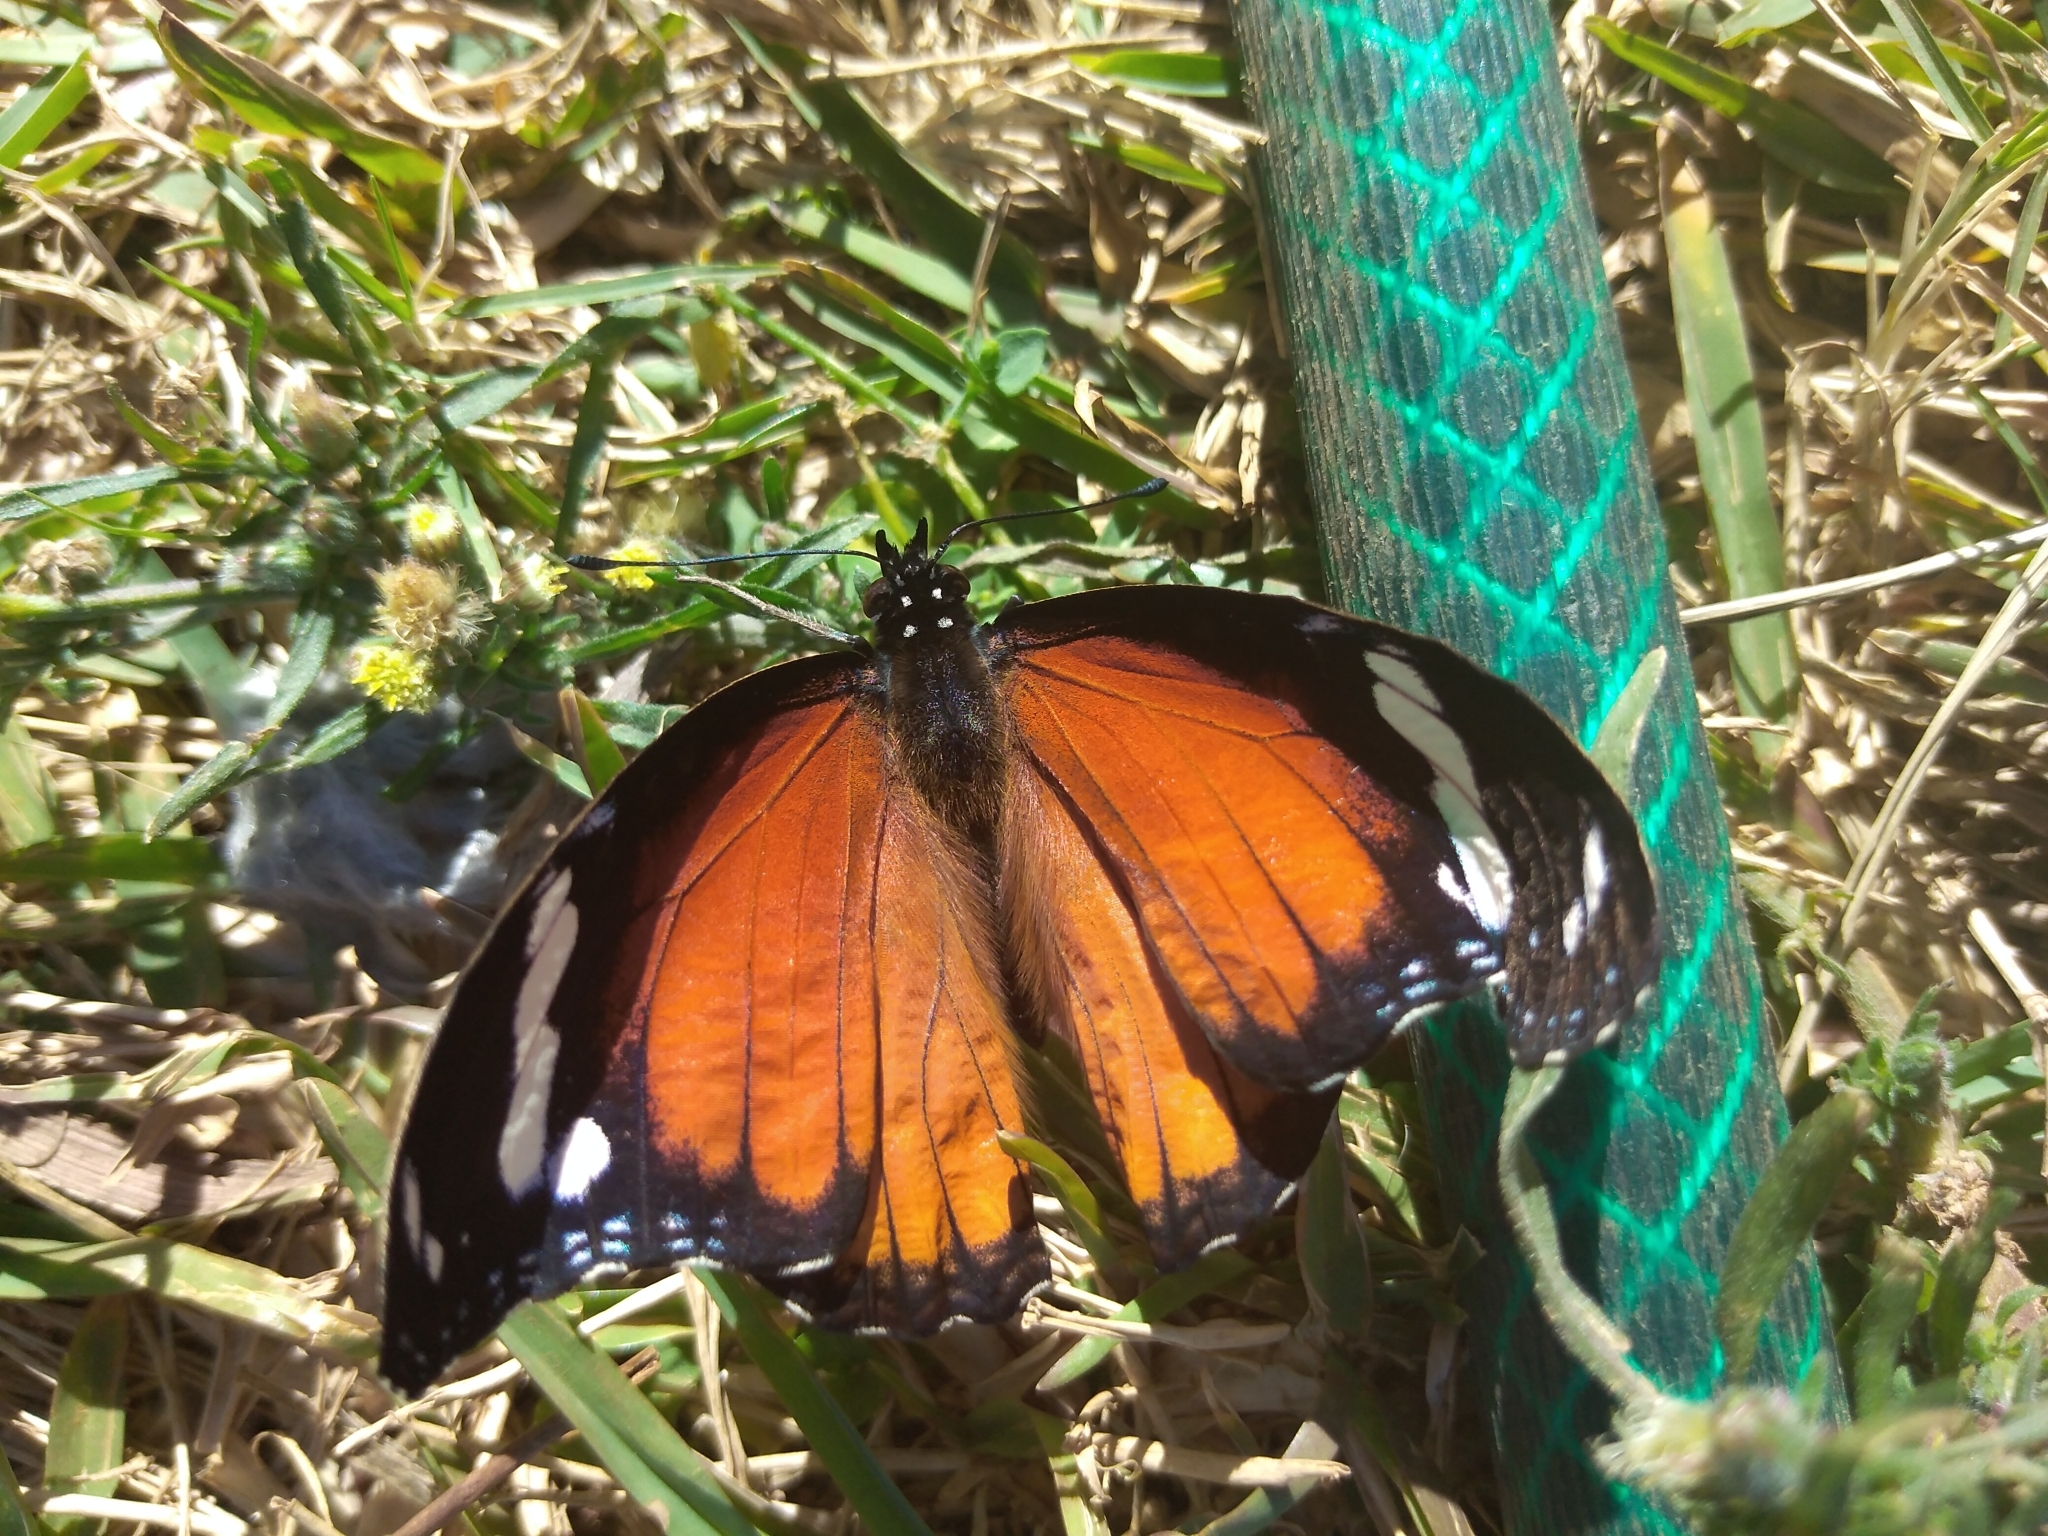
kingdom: Animalia
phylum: Arthropoda
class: Insecta
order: Lepidoptera
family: Nymphalidae
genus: Hypolimnas
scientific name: Hypolimnas misippus
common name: False plain tiger
